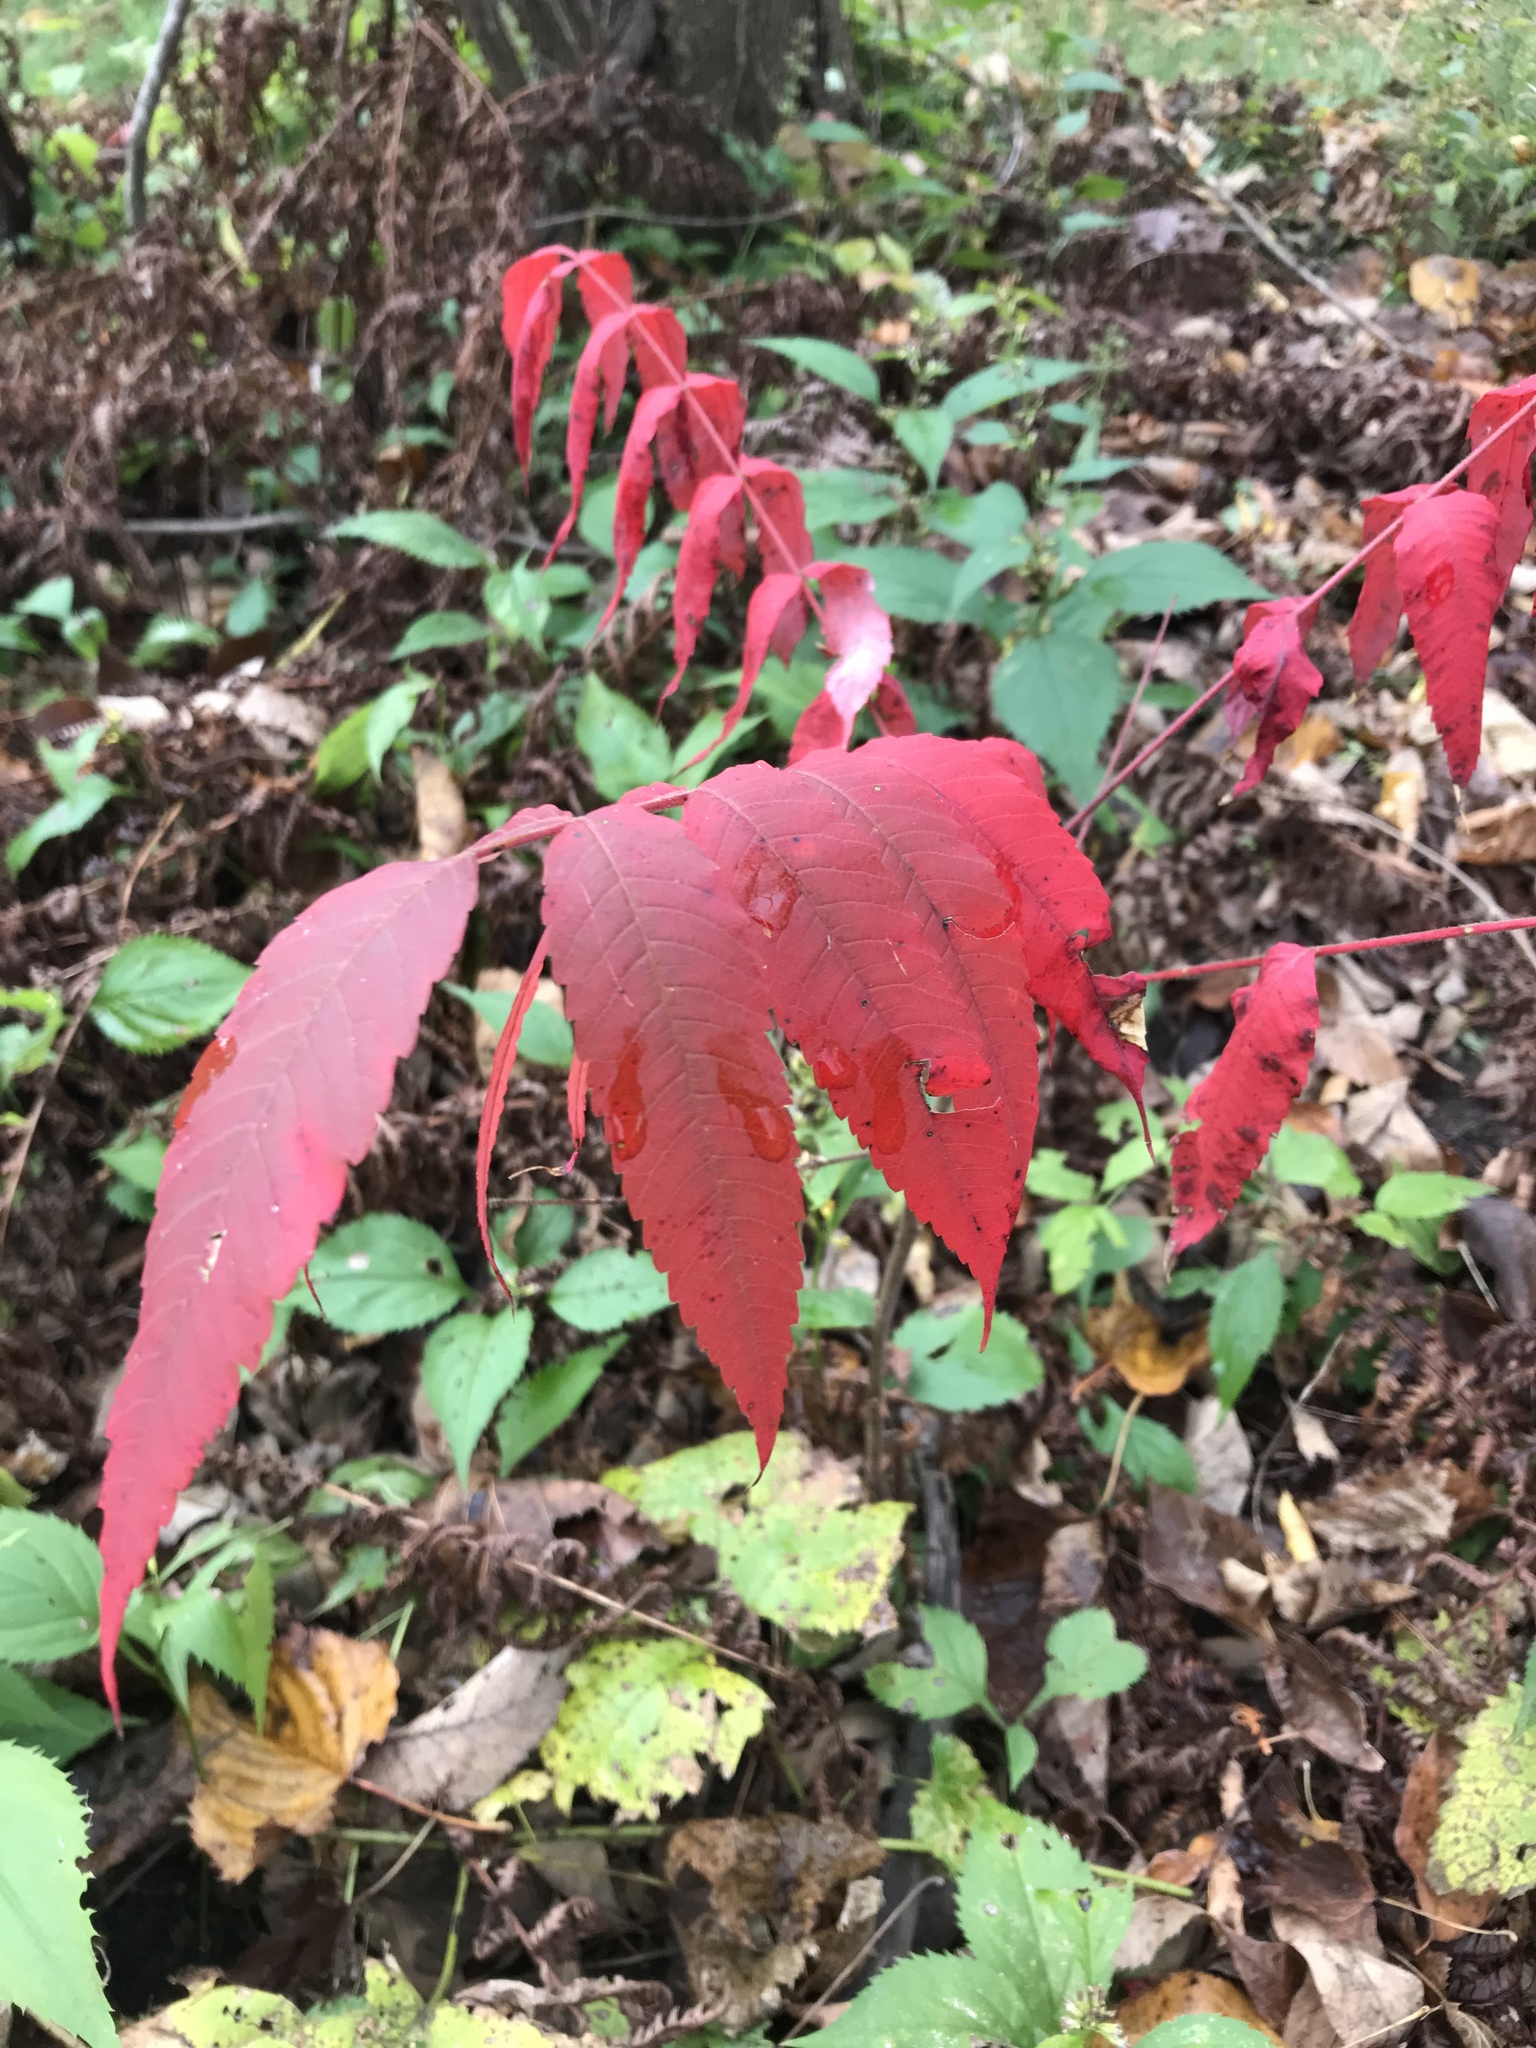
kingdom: Plantae
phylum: Tracheophyta
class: Magnoliopsida
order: Sapindales
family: Anacardiaceae
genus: Rhus
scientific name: Rhus typhina
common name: Staghorn sumac
